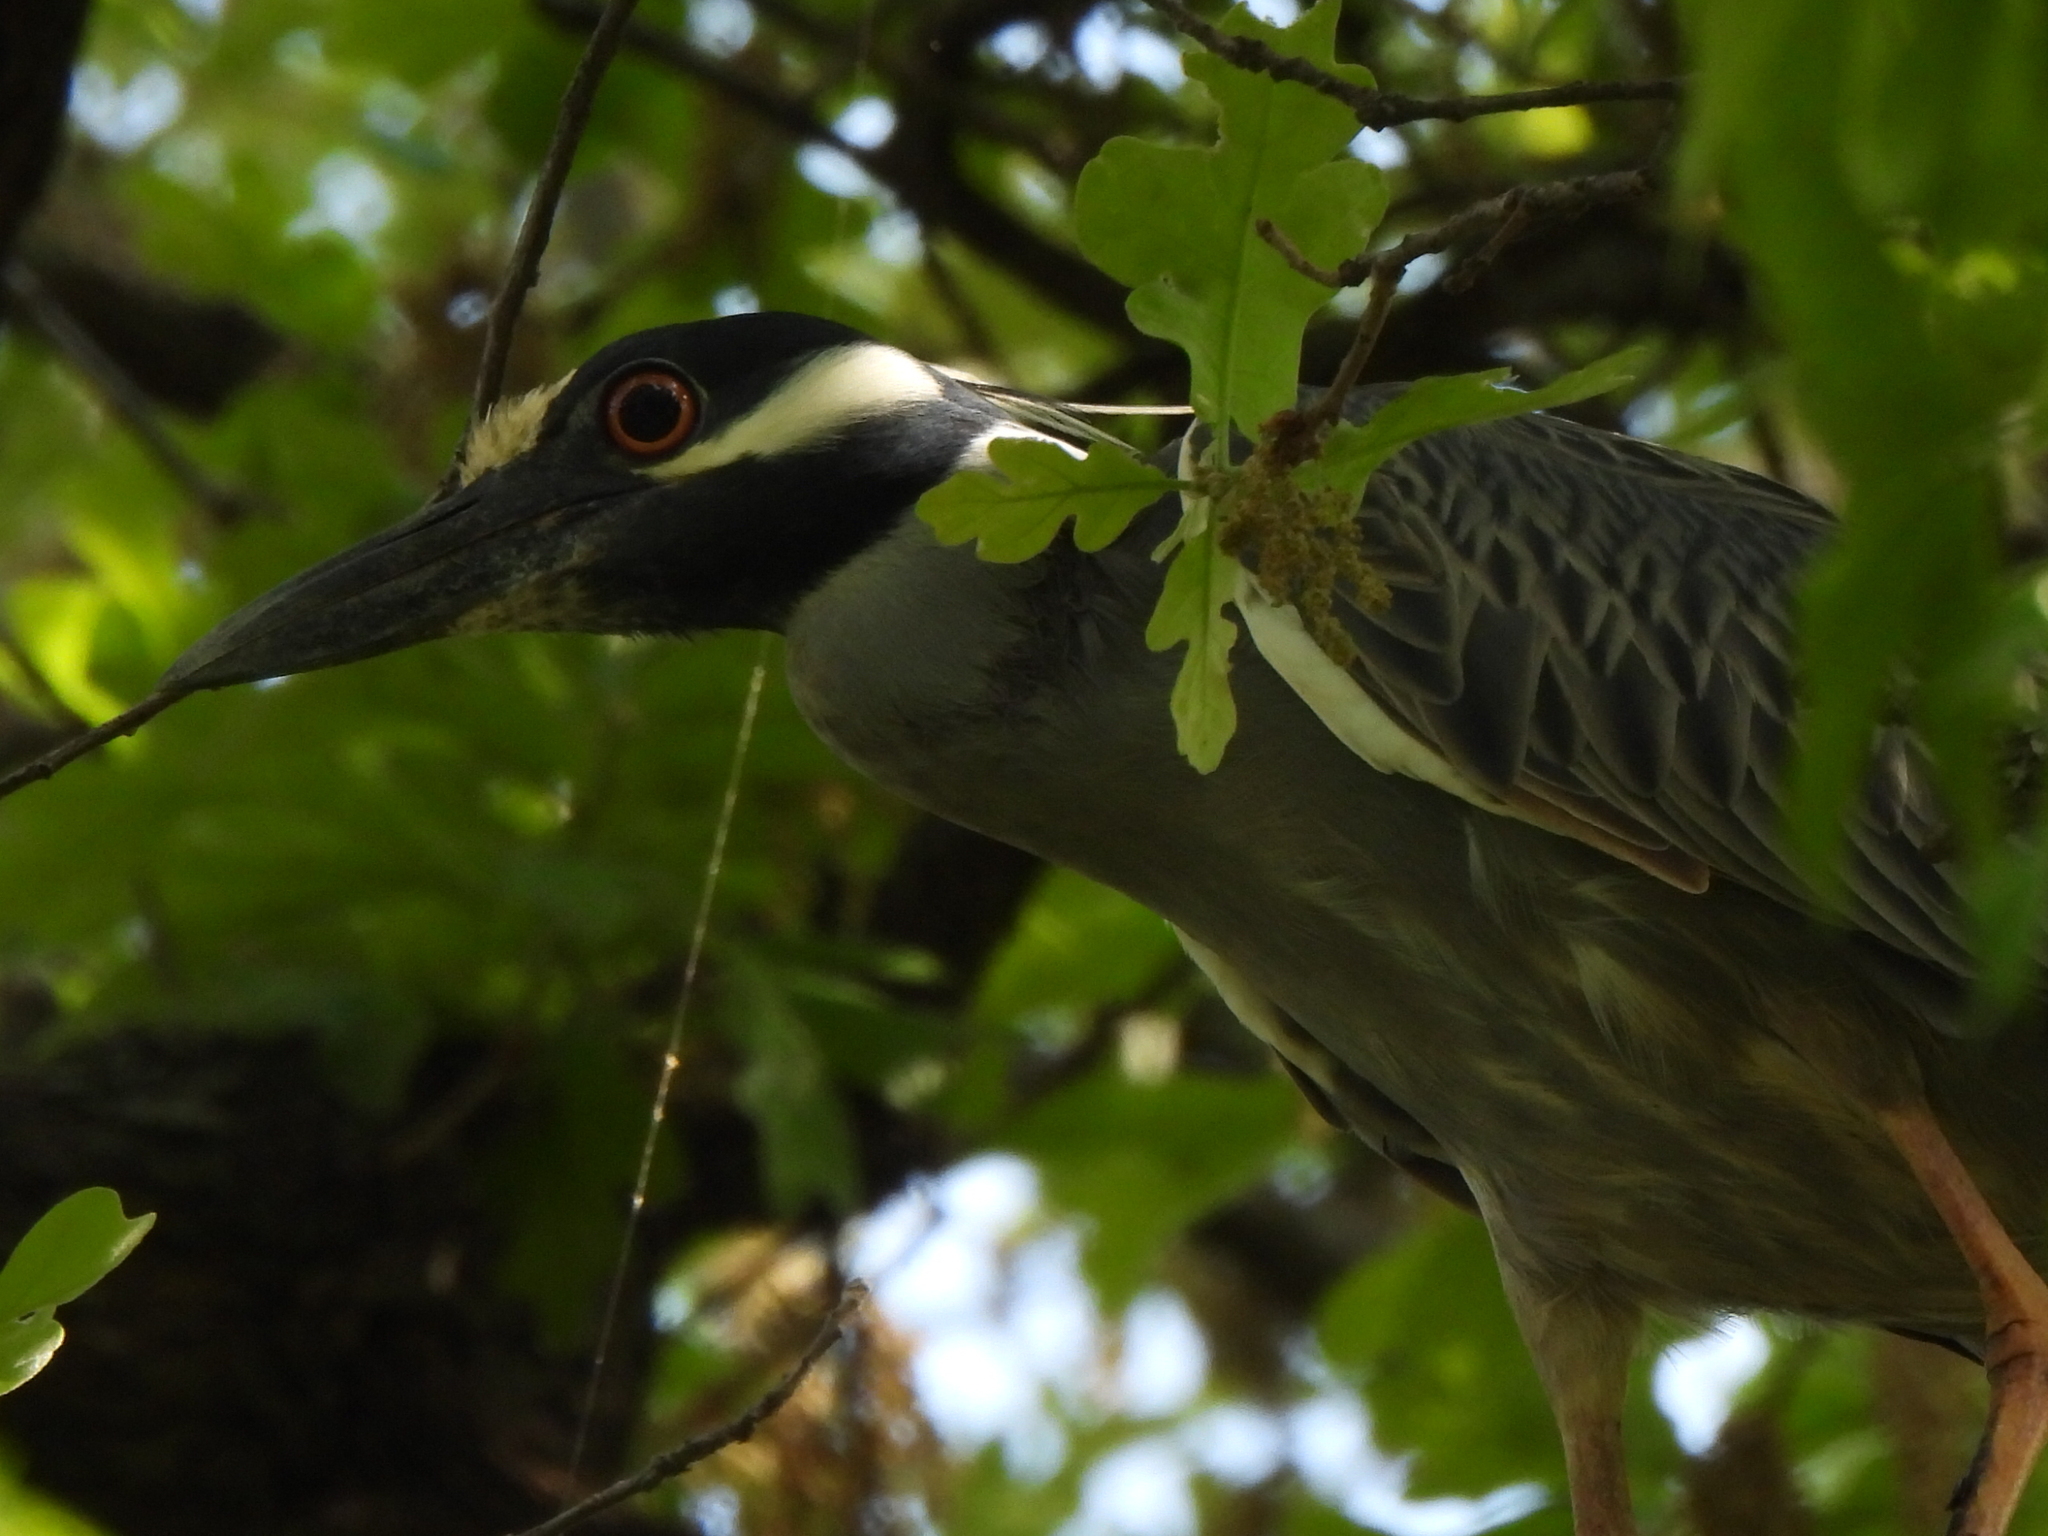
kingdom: Animalia
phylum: Chordata
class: Aves
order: Pelecaniformes
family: Ardeidae
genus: Nyctanassa
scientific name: Nyctanassa violacea
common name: Yellow-crowned night heron
